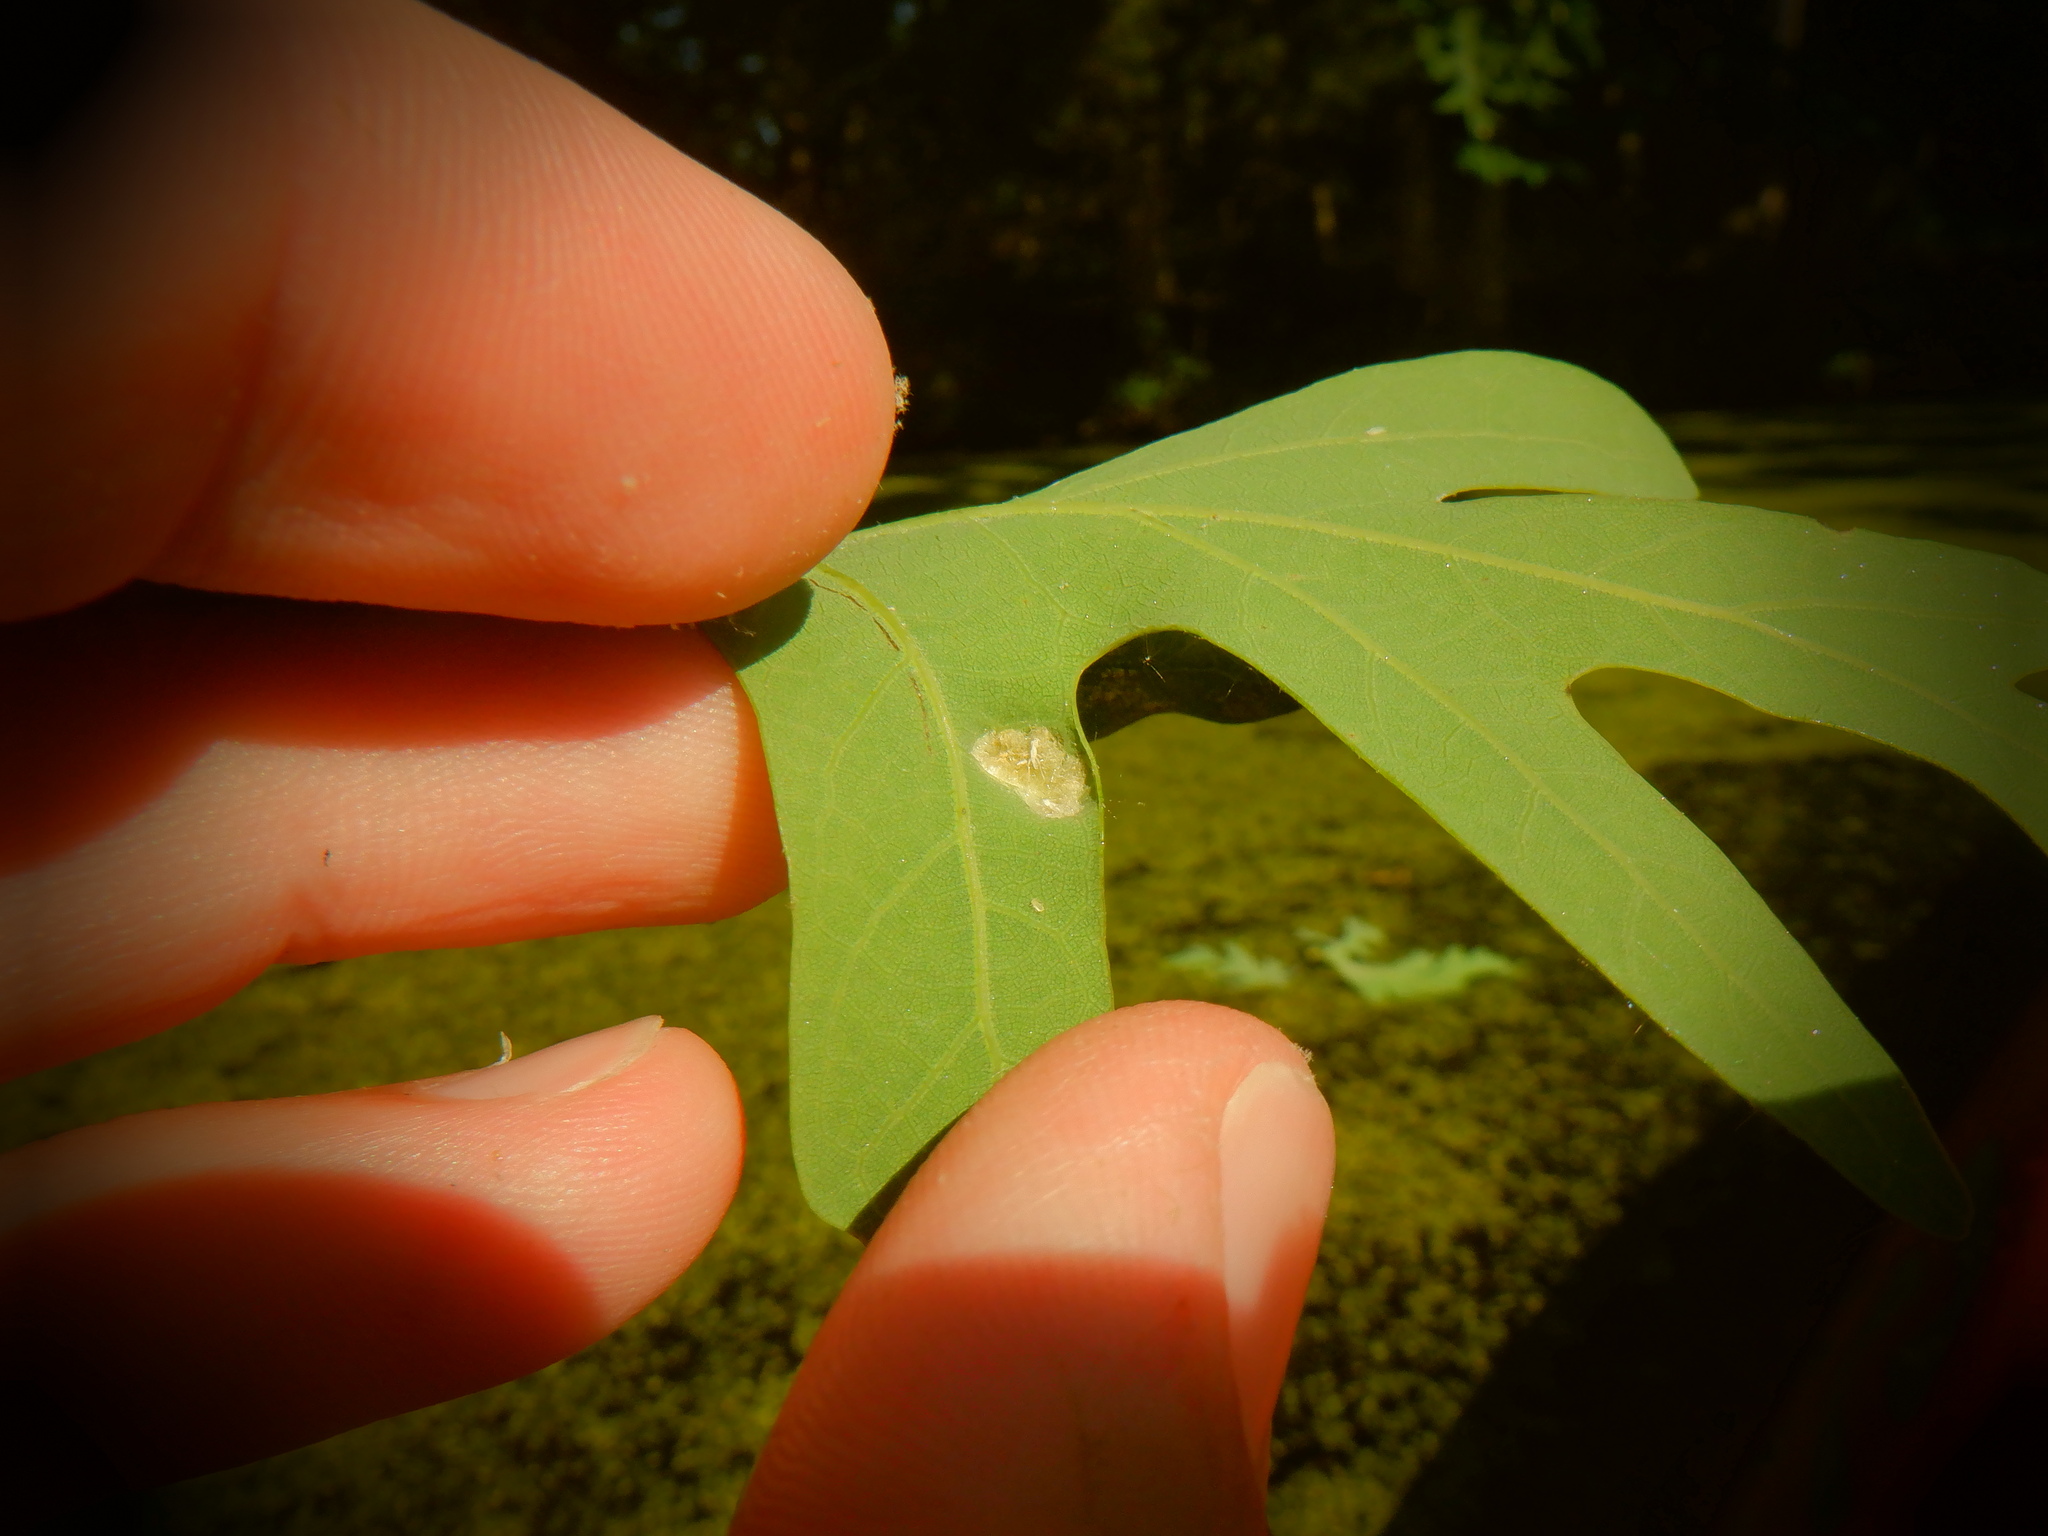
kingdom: Animalia
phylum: Arthropoda
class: Arachnida
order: Trombidiformes
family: Eriophyidae
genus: Aceria
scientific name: Aceria
